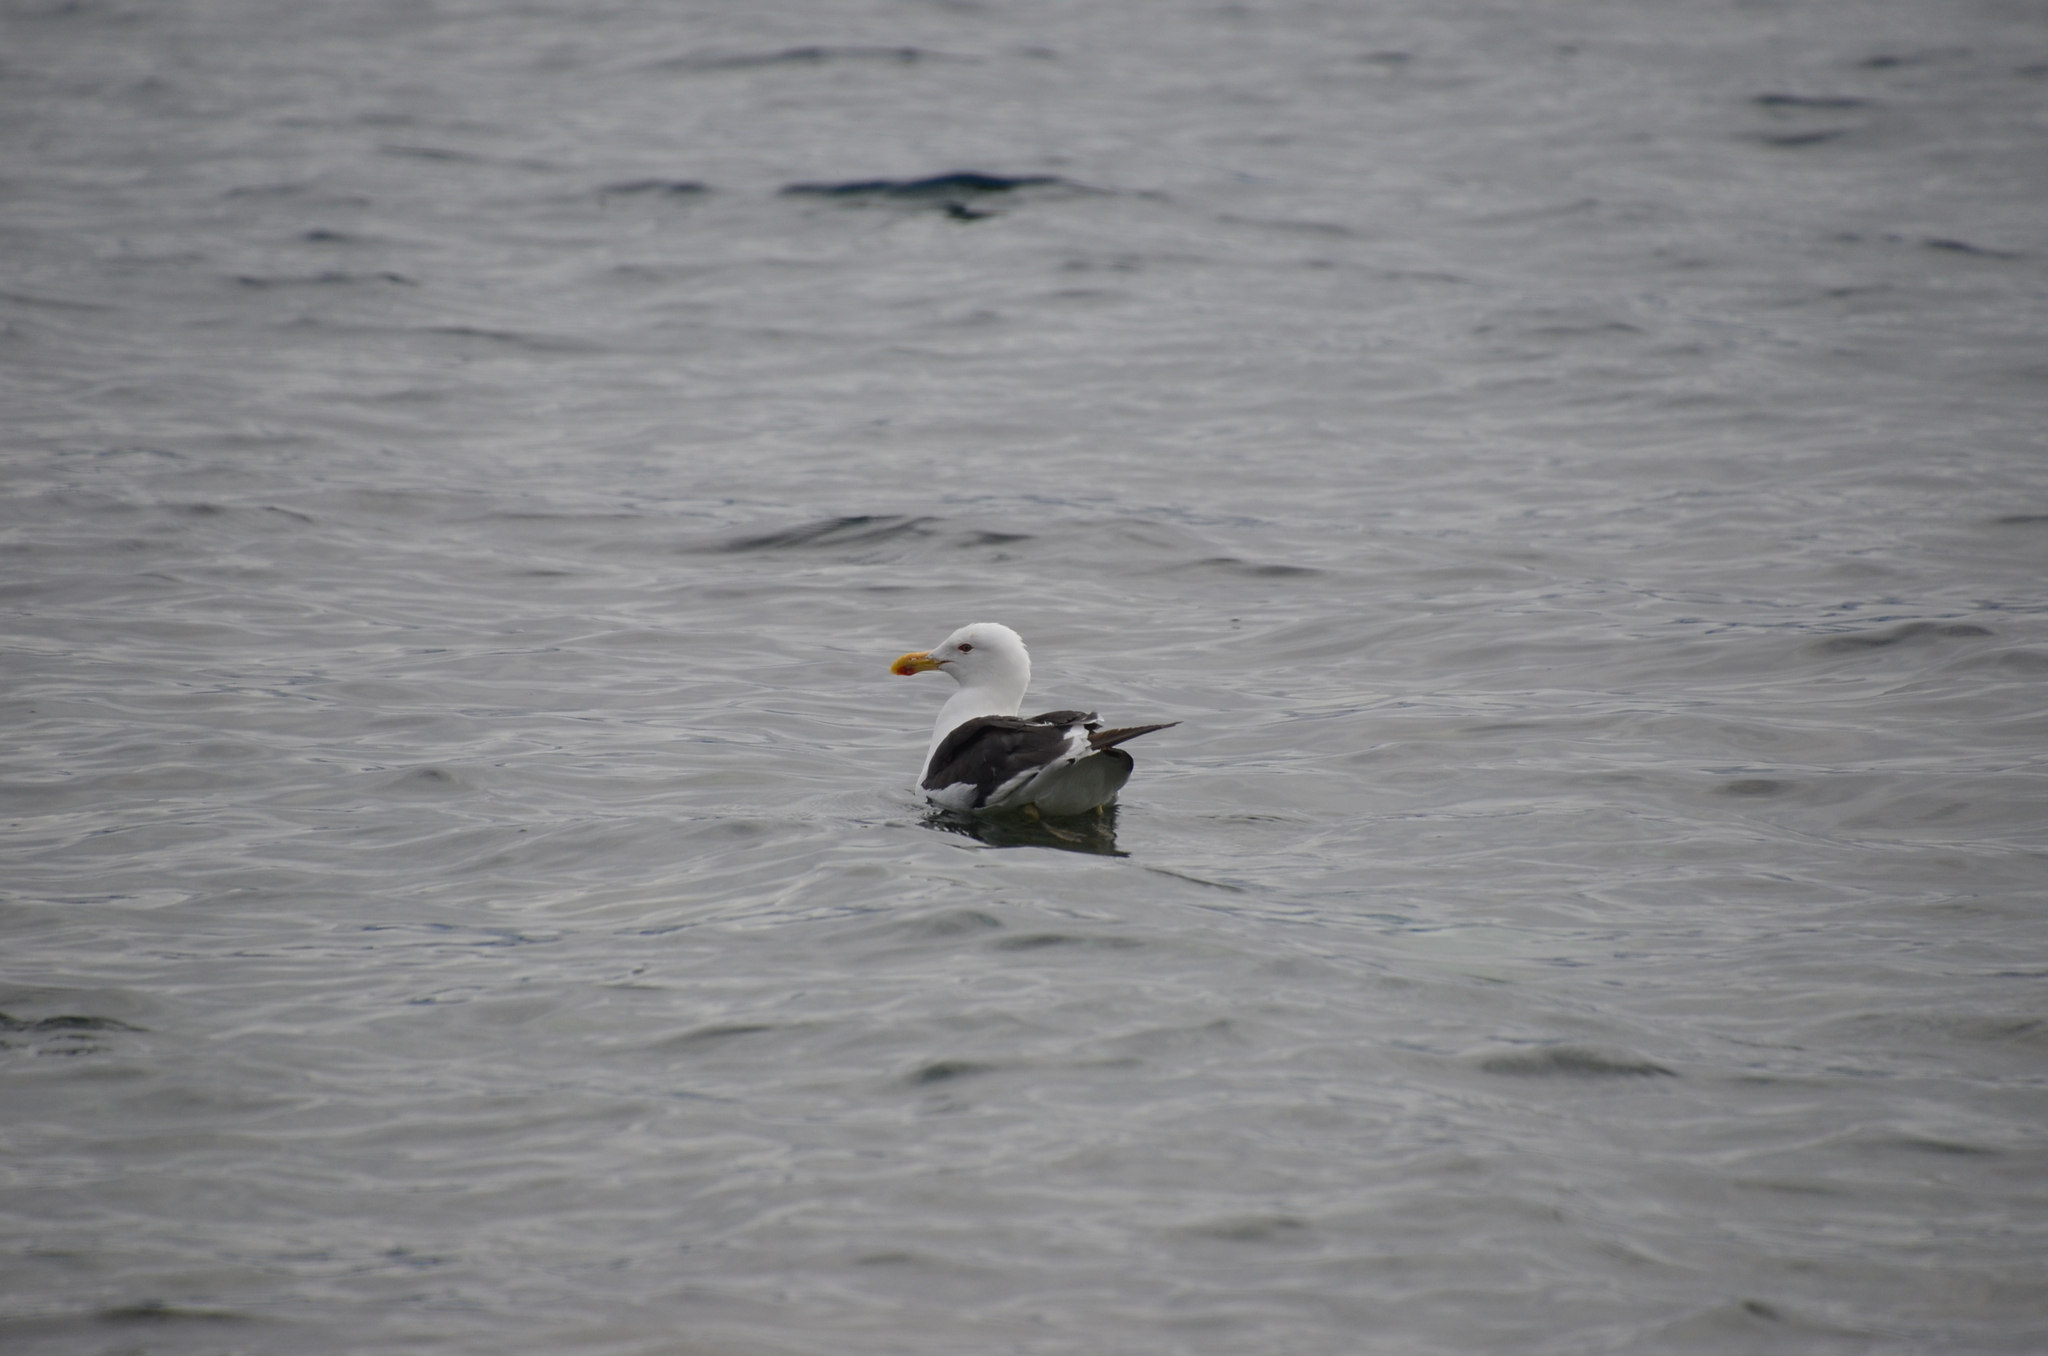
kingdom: Animalia
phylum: Chordata
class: Aves
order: Charadriiformes
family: Laridae
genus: Larus
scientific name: Larus dominicanus
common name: Kelp gull
